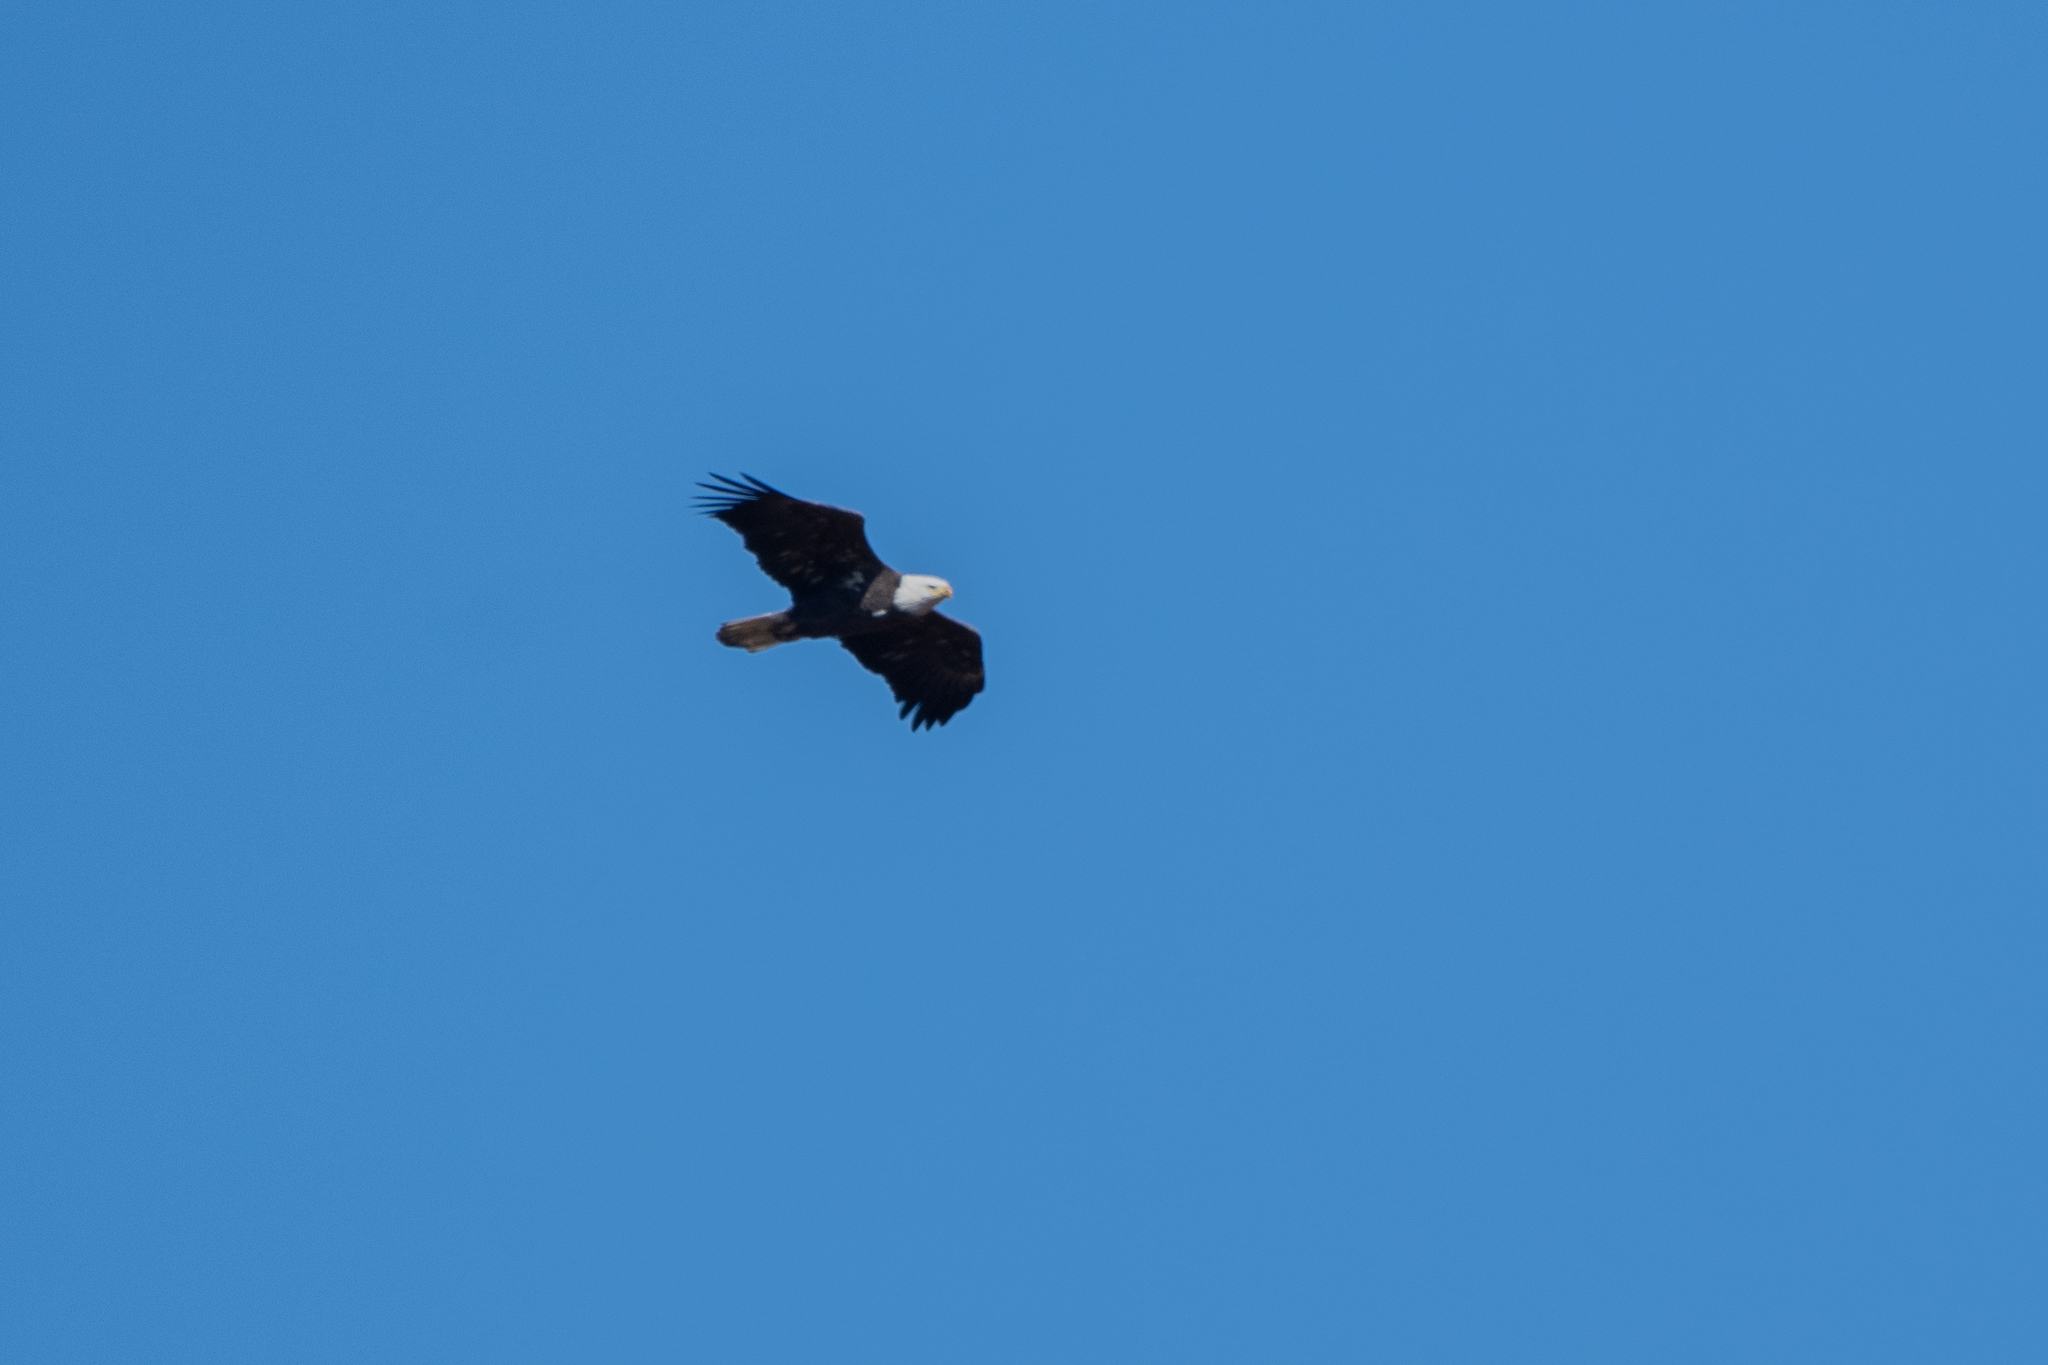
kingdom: Animalia
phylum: Chordata
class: Aves
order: Accipitriformes
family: Accipitridae
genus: Haliaeetus
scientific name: Haliaeetus leucocephalus
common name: Bald eagle
